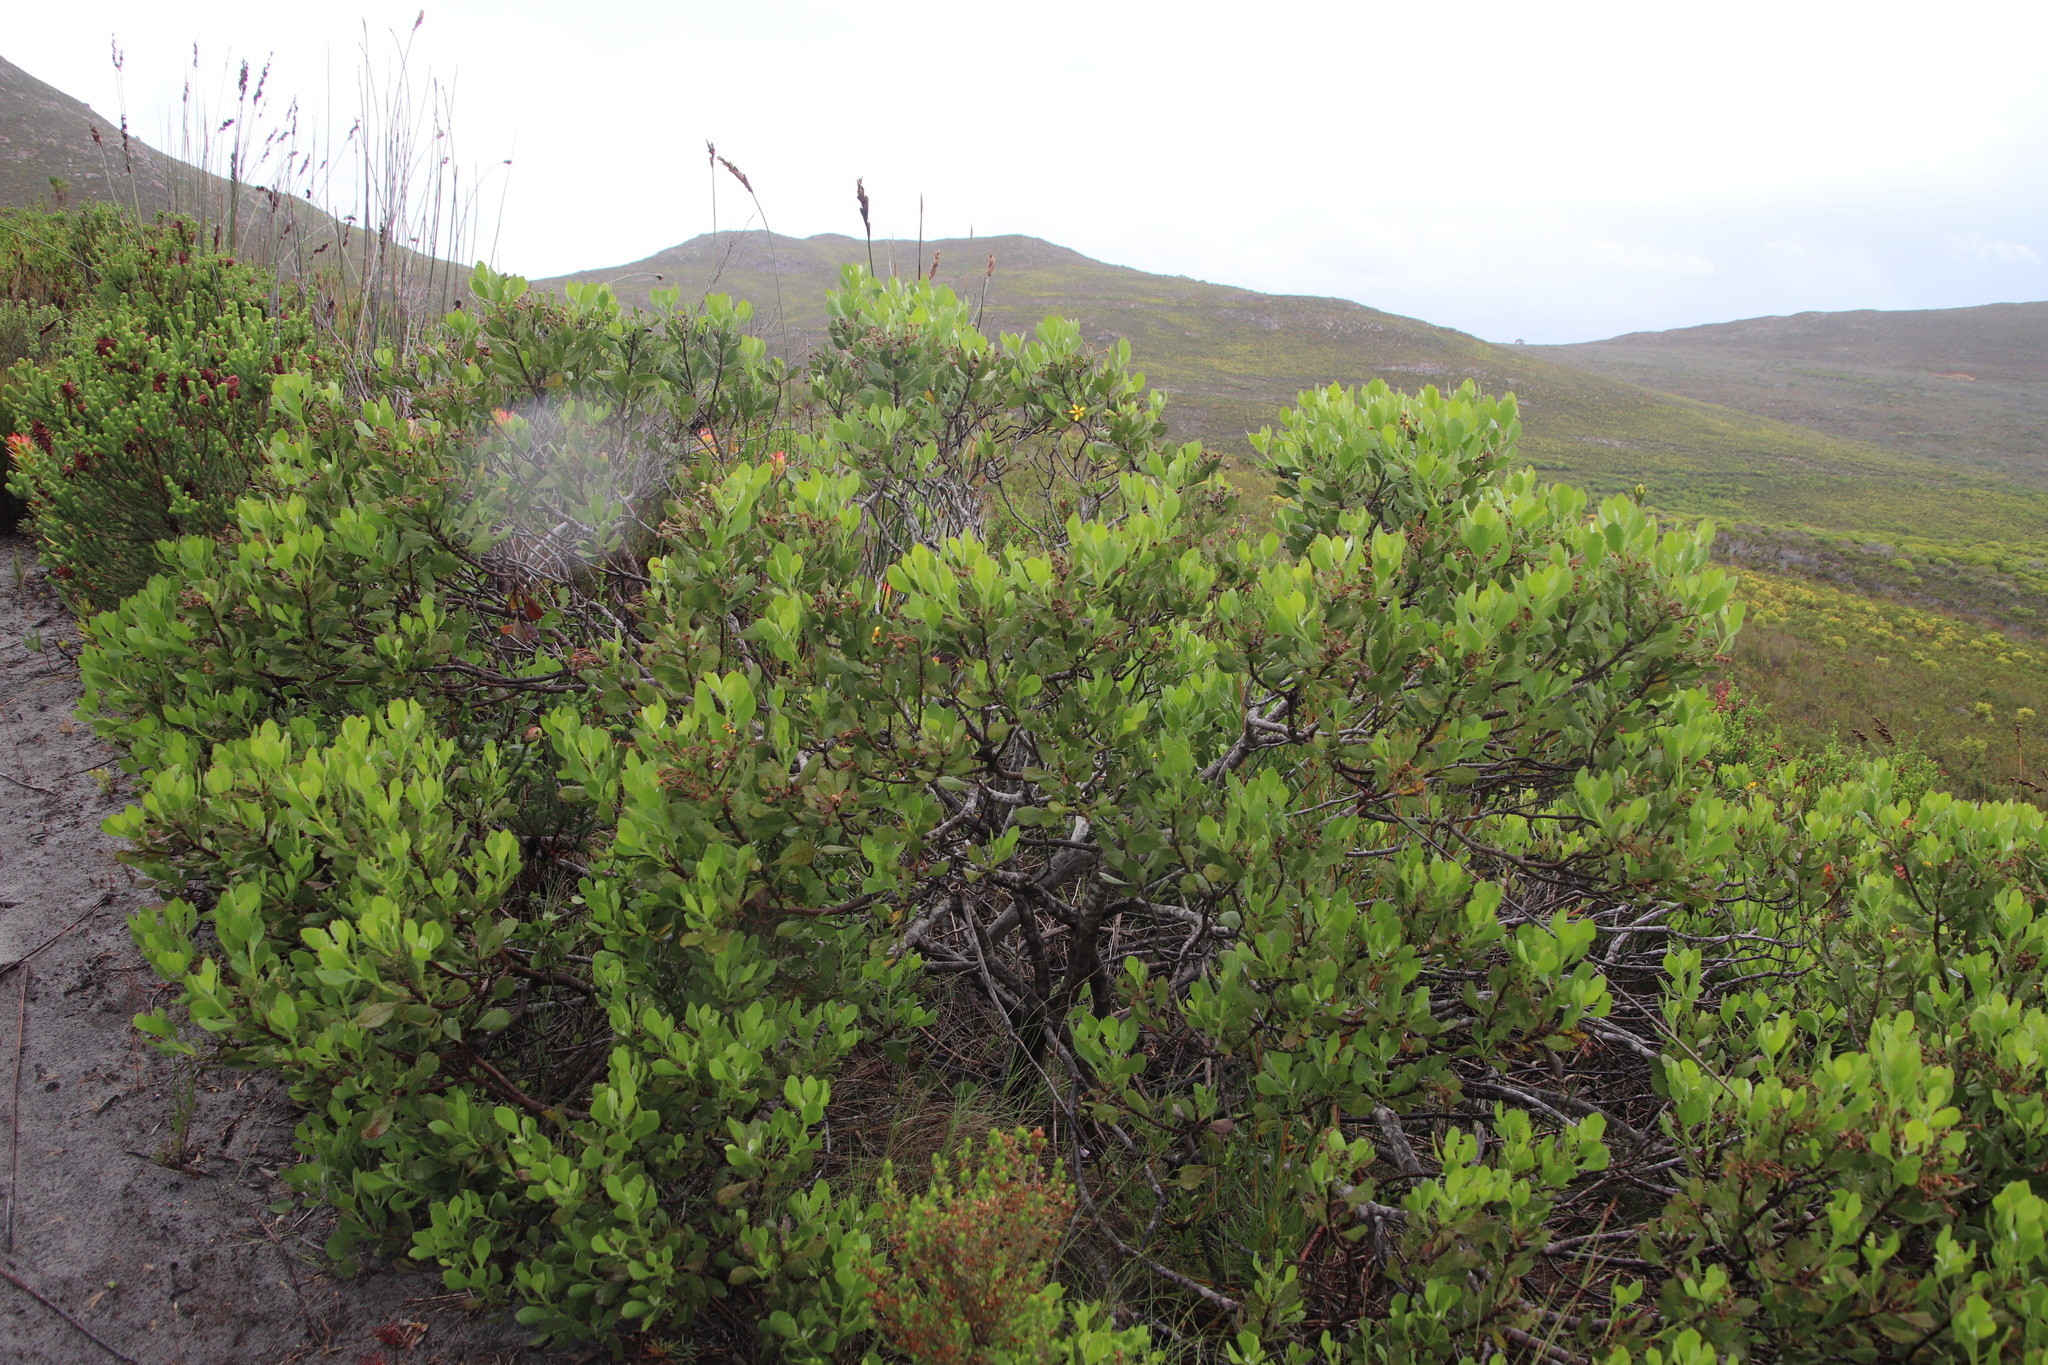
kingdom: Plantae
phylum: Tracheophyta
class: Magnoliopsida
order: Asterales
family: Asteraceae
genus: Osteospermum
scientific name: Osteospermum moniliferum
